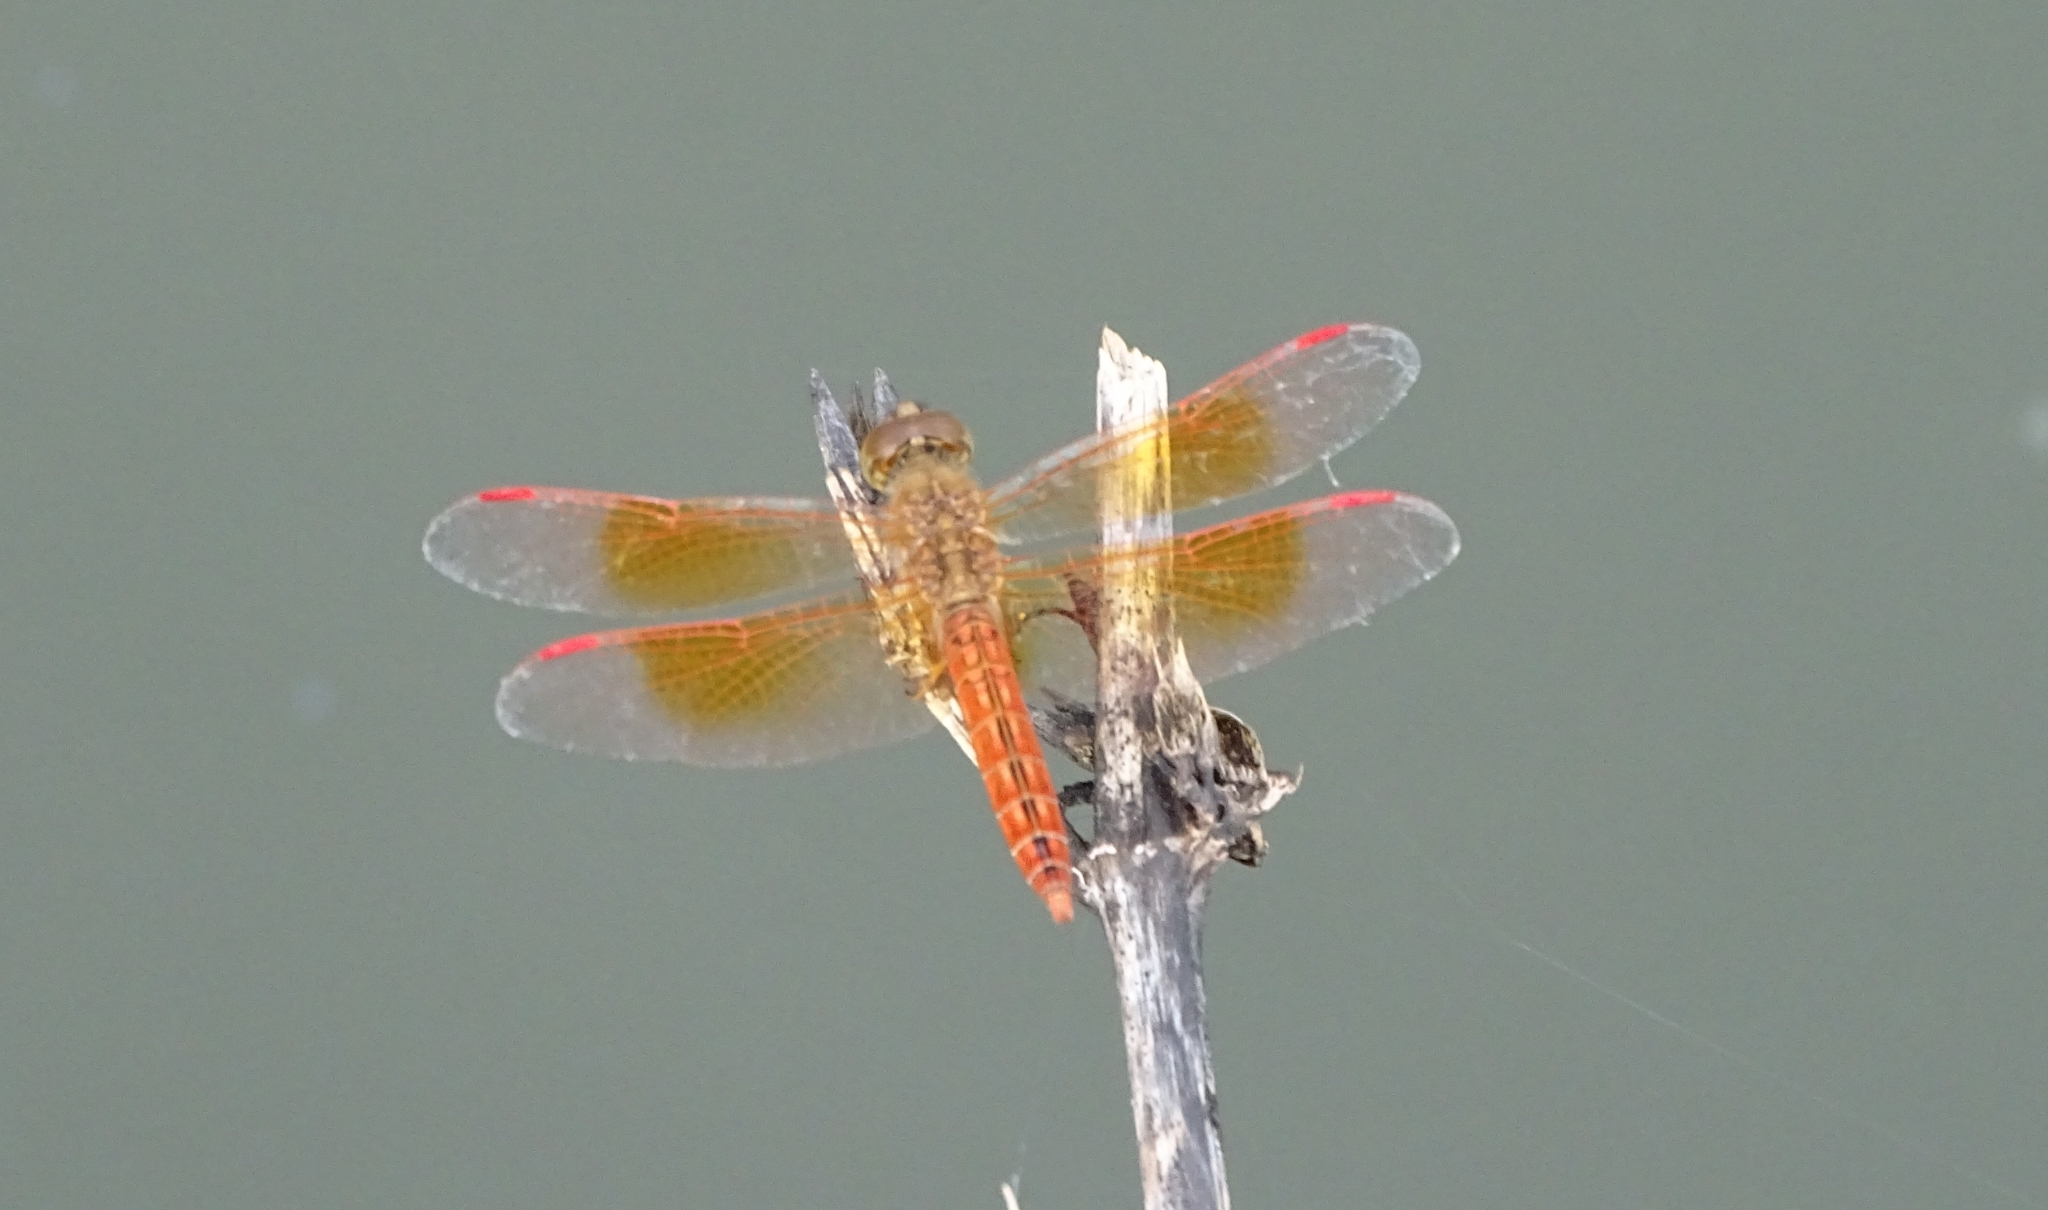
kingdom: Animalia
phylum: Arthropoda
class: Insecta
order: Odonata
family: Libellulidae
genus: Brachythemis
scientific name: Brachythemis contaminata
